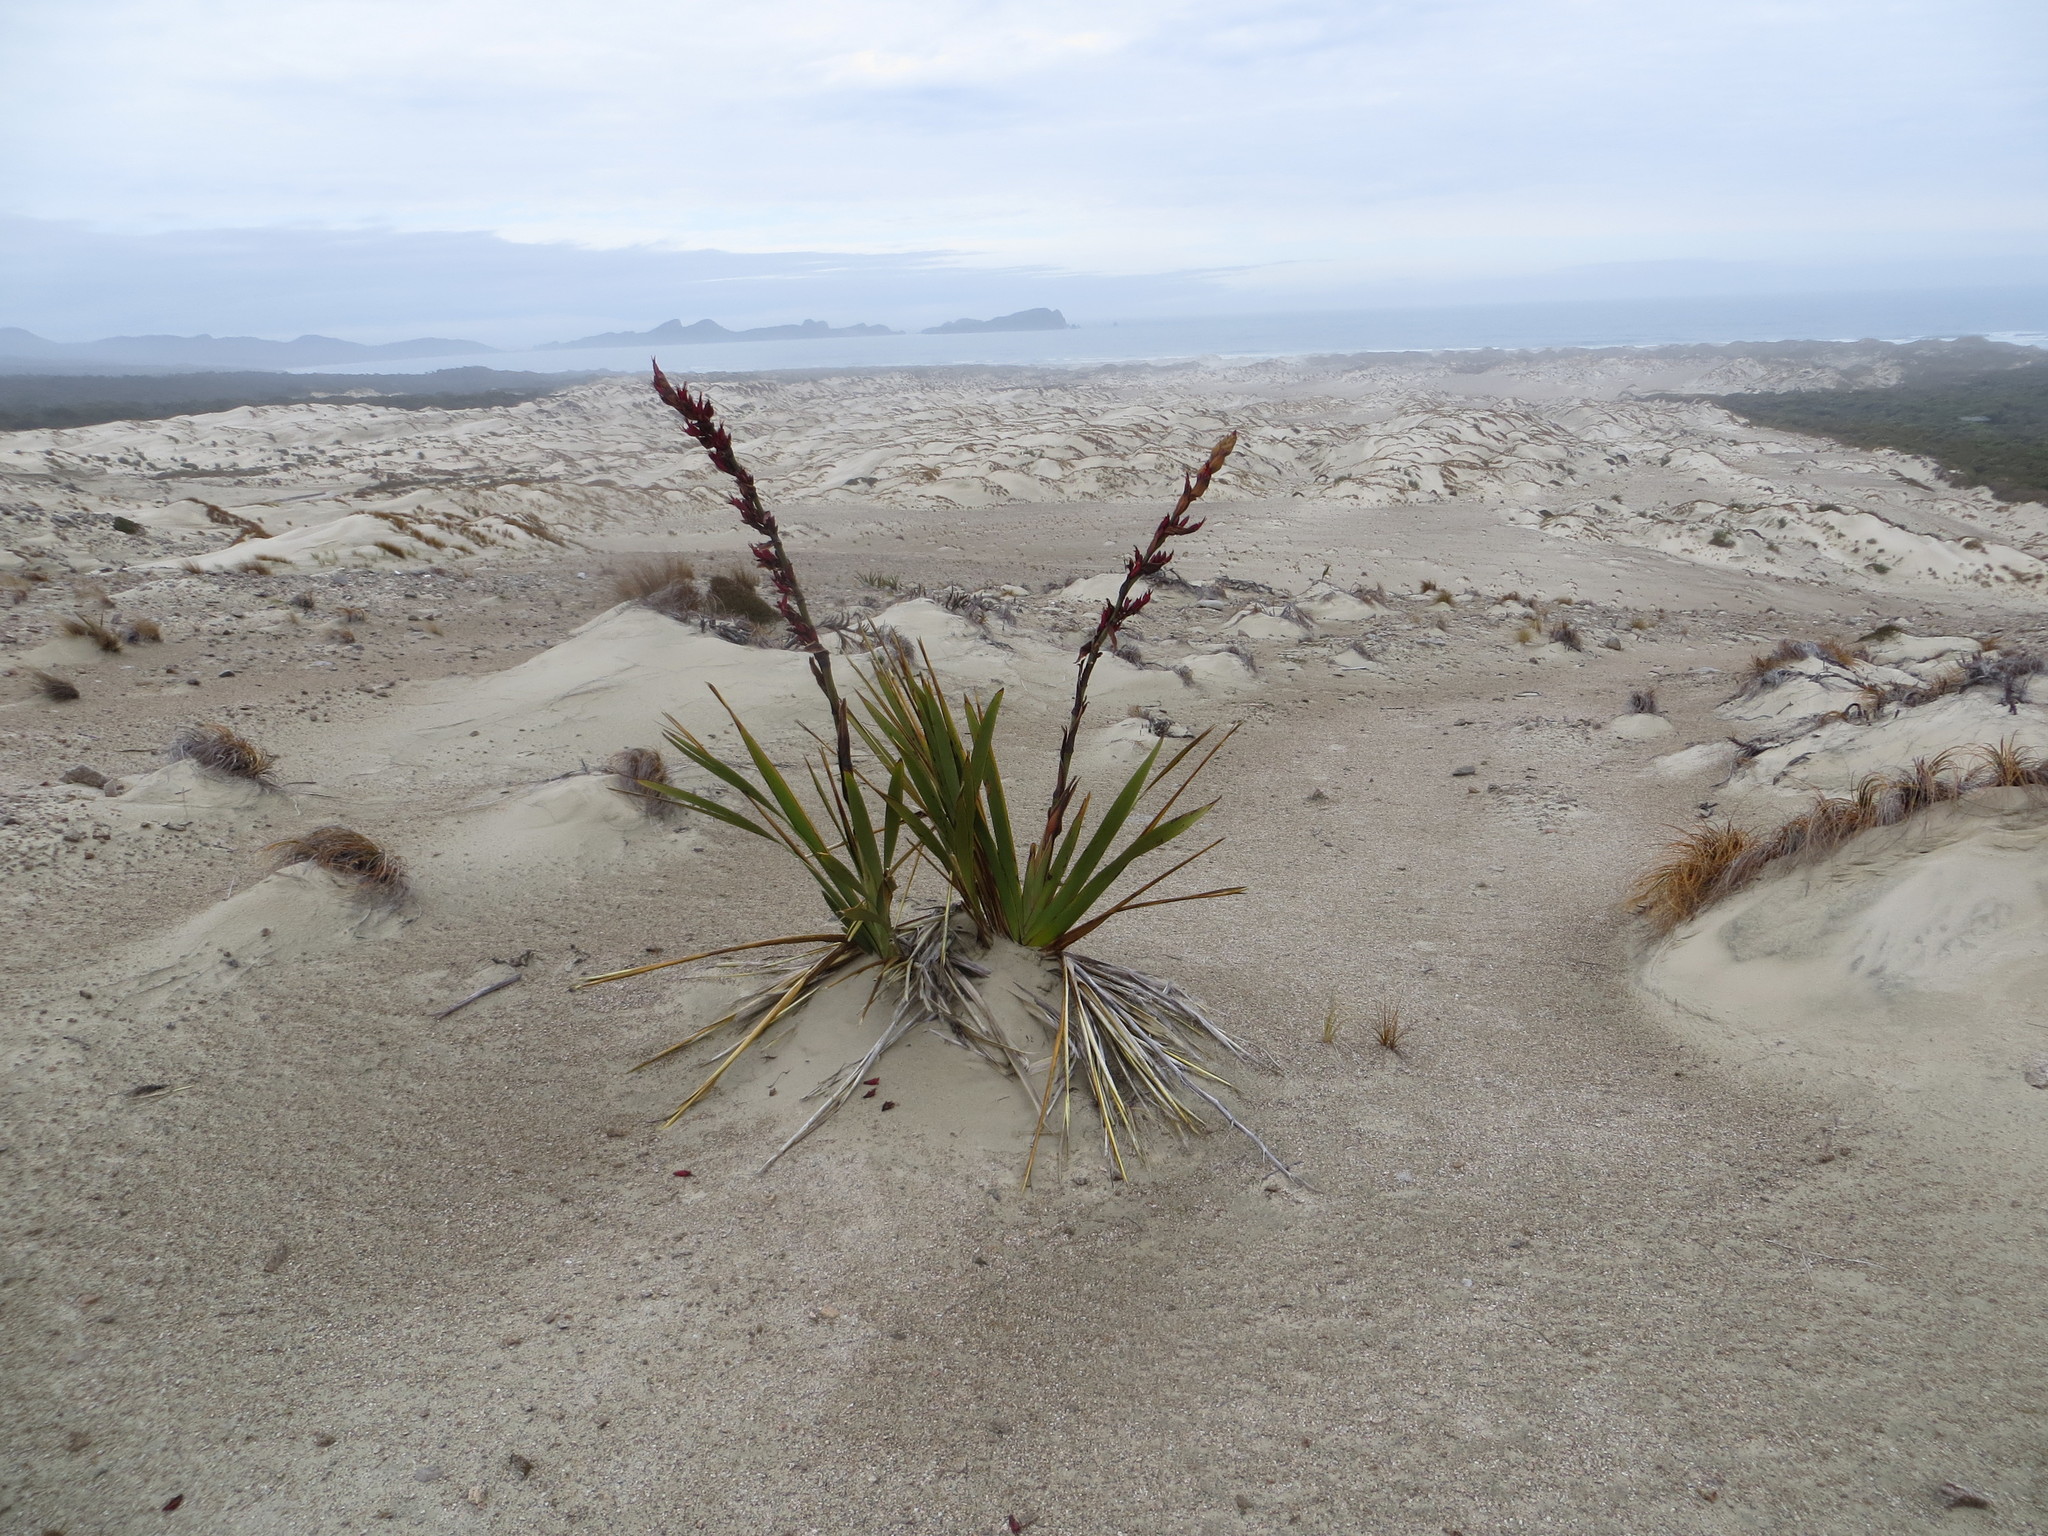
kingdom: Plantae
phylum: Tracheophyta
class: Liliopsida
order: Asparagales
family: Asphodelaceae
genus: Phormium
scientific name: Phormium tenax
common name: New zealand flax
